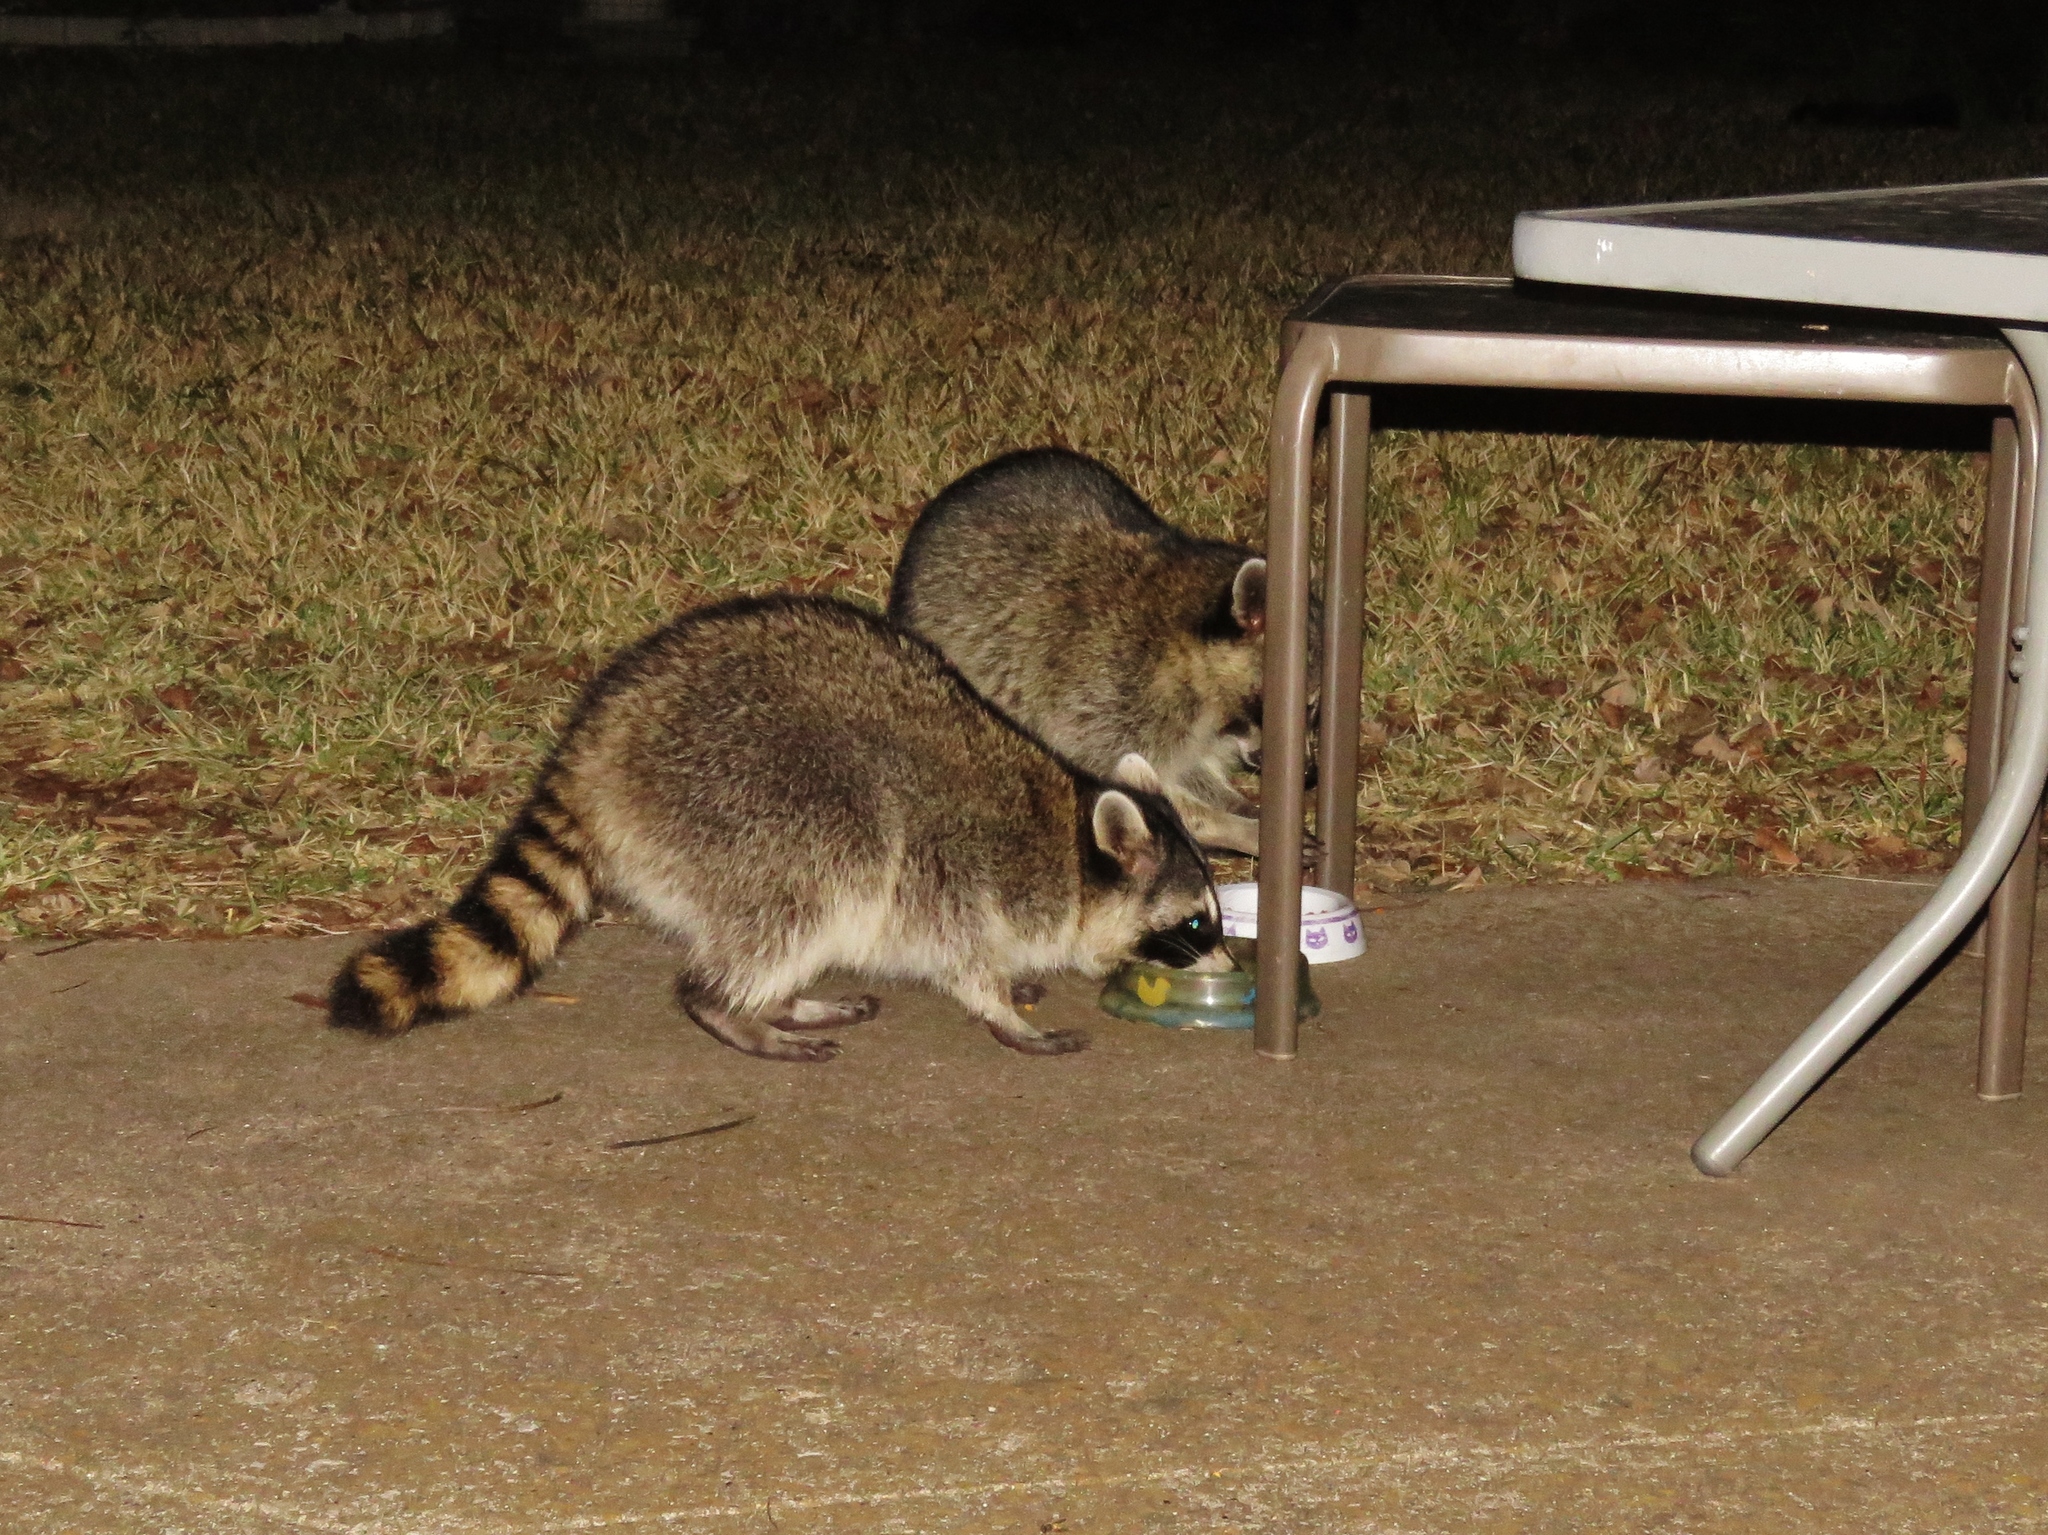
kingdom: Animalia
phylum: Chordata
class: Mammalia
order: Carnivora
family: Procyonidae
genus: Procyon
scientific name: Procyon lotor
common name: Raccoon
